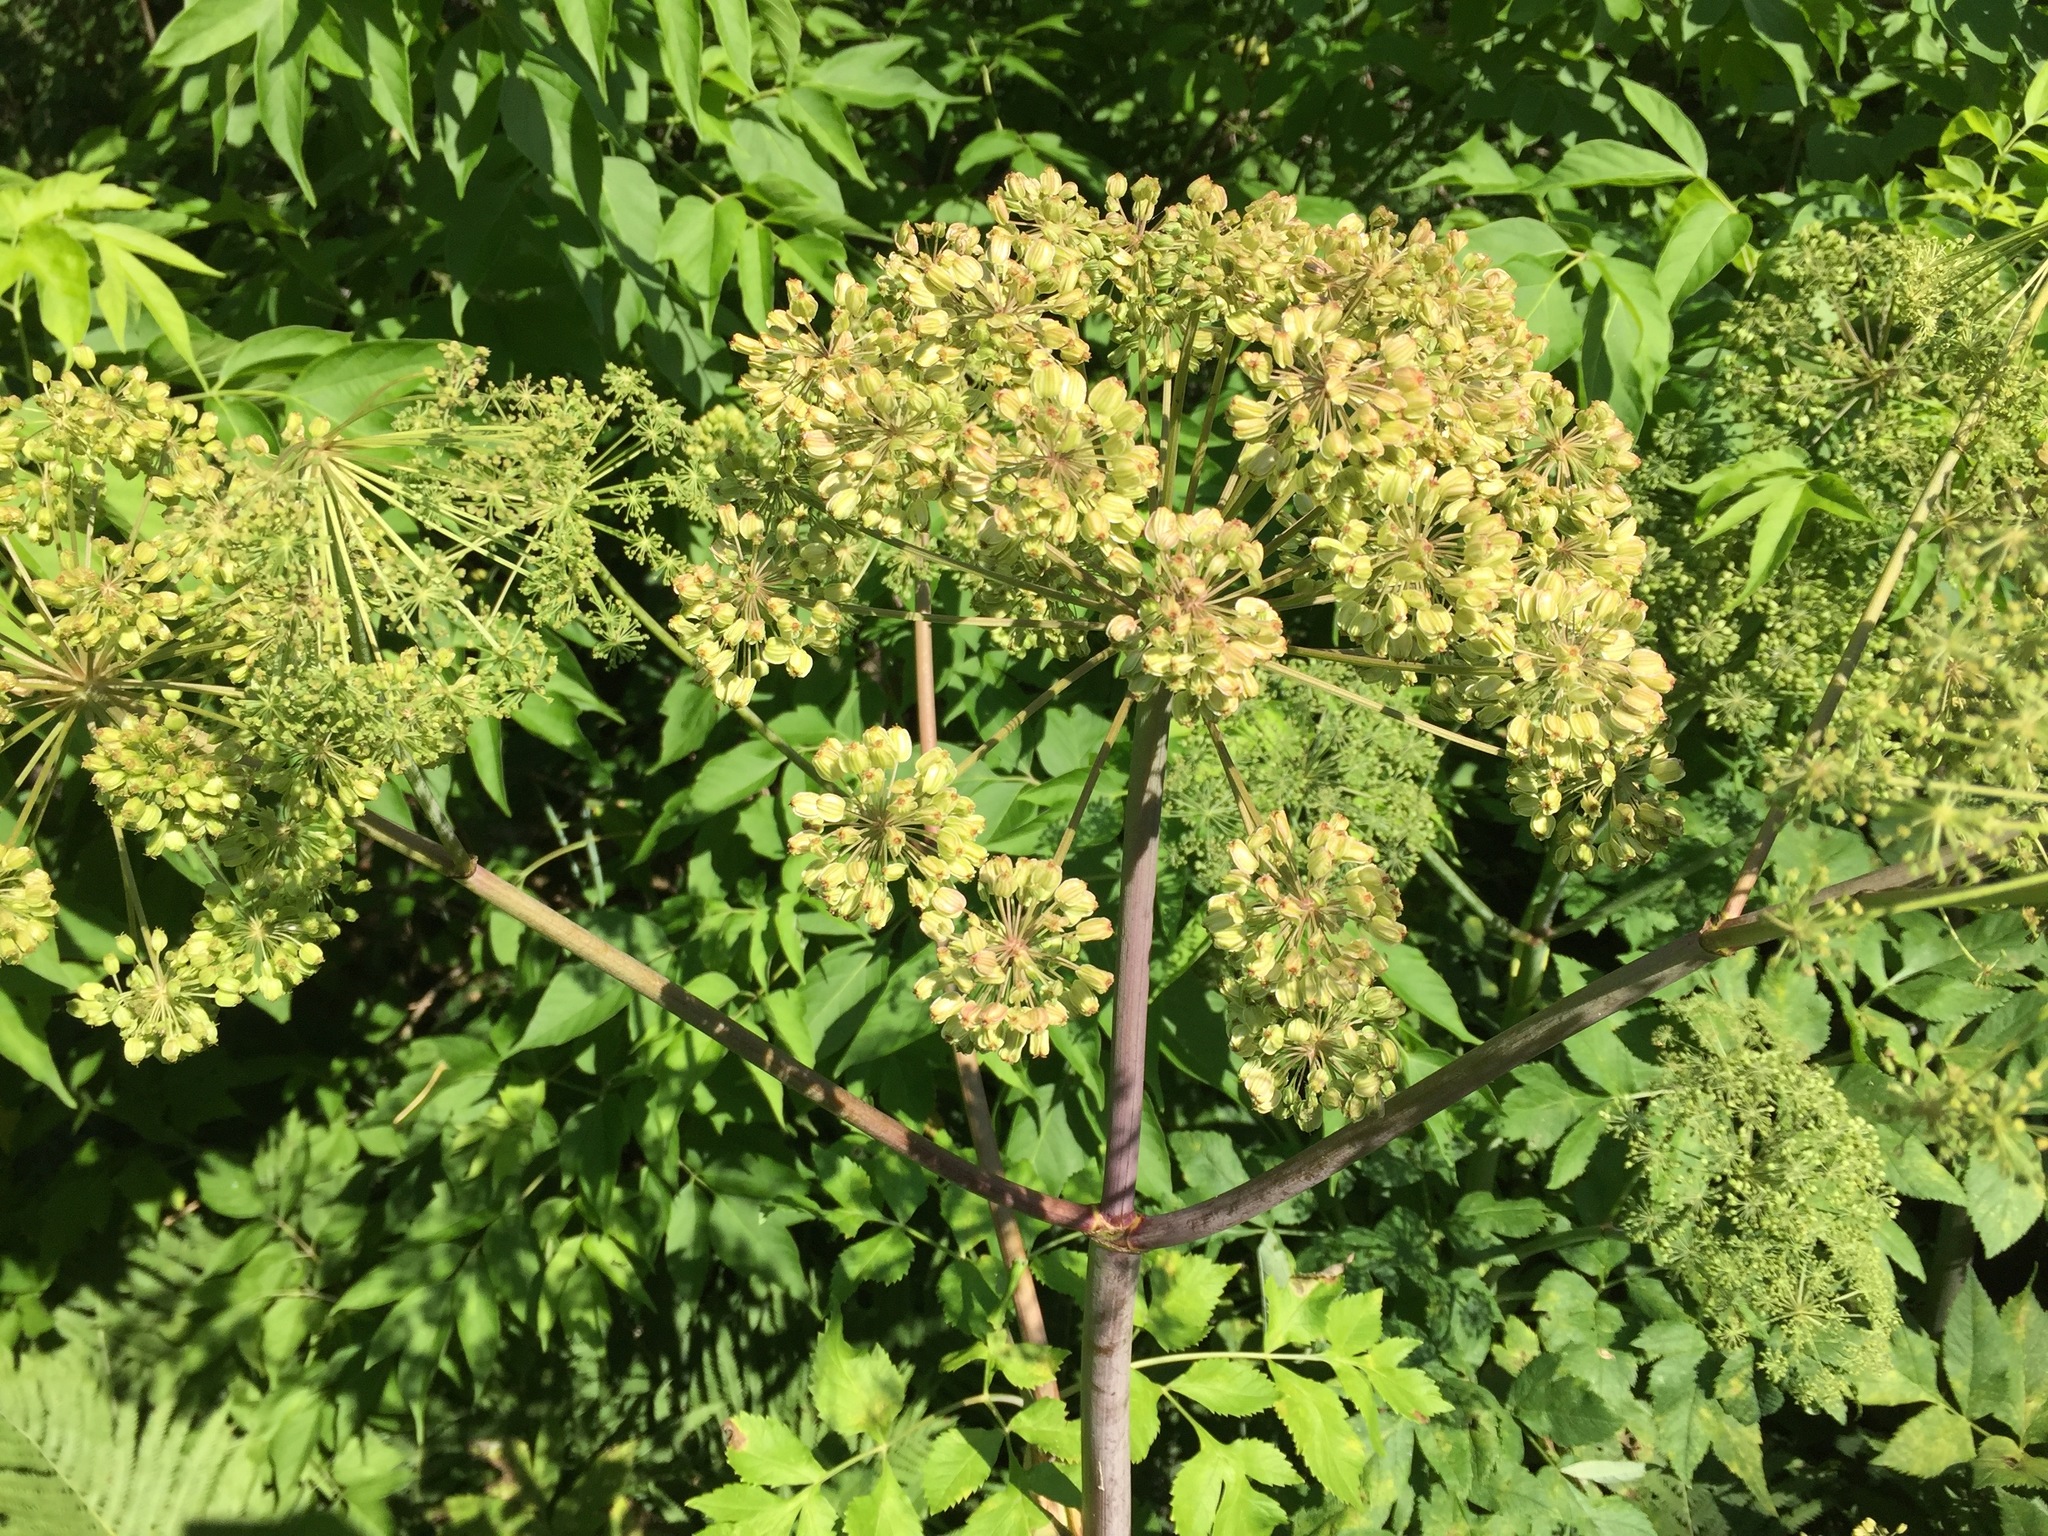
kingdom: Plantae
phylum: Tracheophyta
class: Magnoliopsida
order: Apiales
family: Apiaceae
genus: Angelica
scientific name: Angelica atropurpurea
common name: Great angelica
